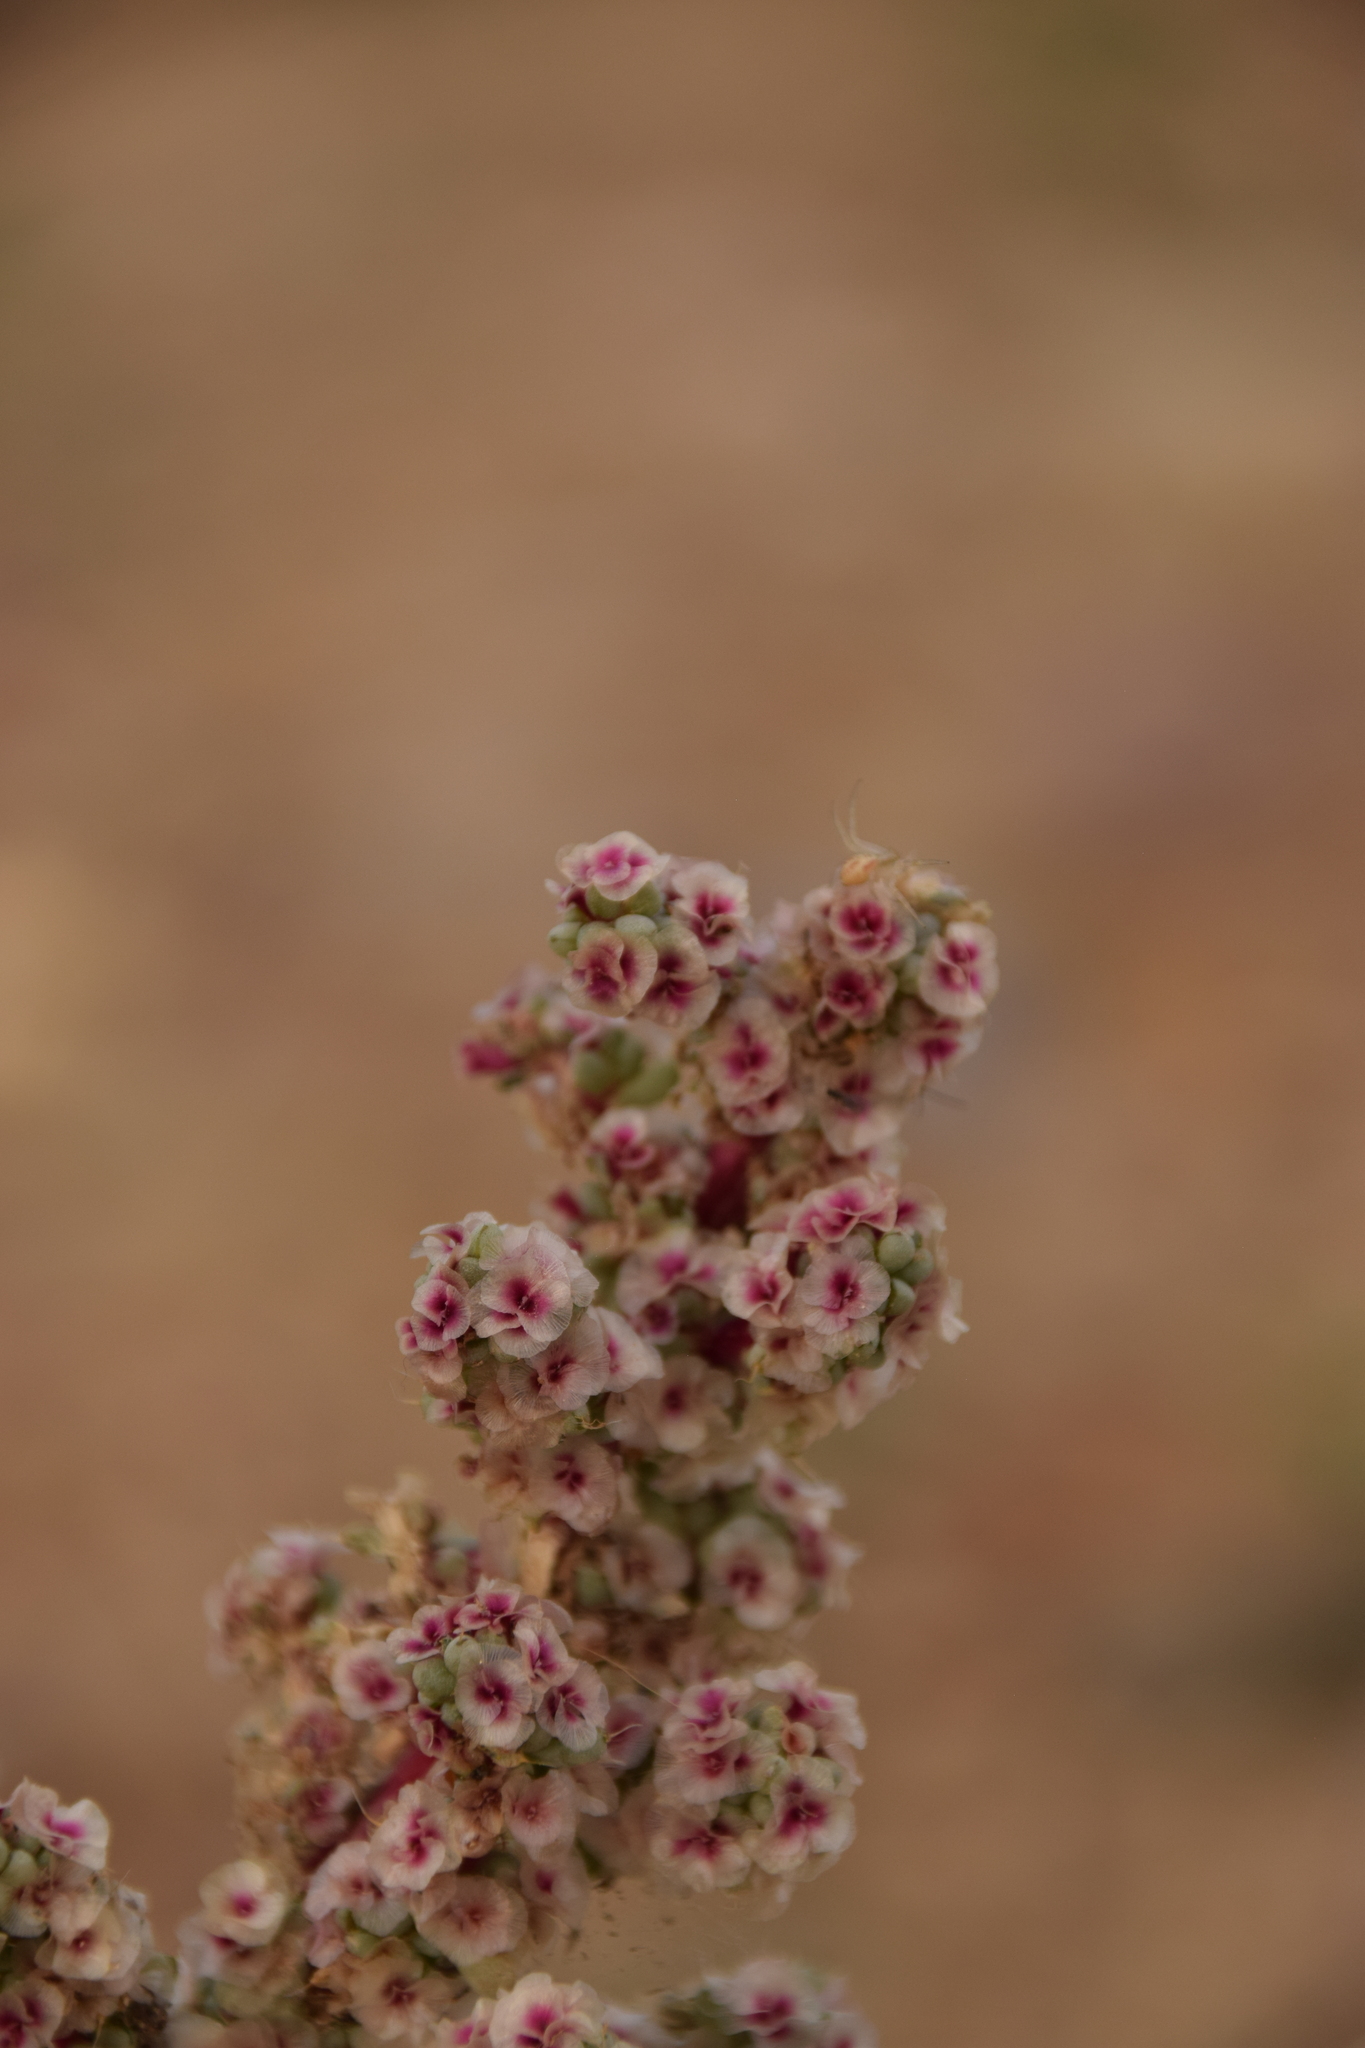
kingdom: Plantae
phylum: Tracheophyta
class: Magnoliopsida
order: Caryophyllales
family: Amaranthaceae
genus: Halogeton
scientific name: Halogeton glomeratus
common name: Saltlover
